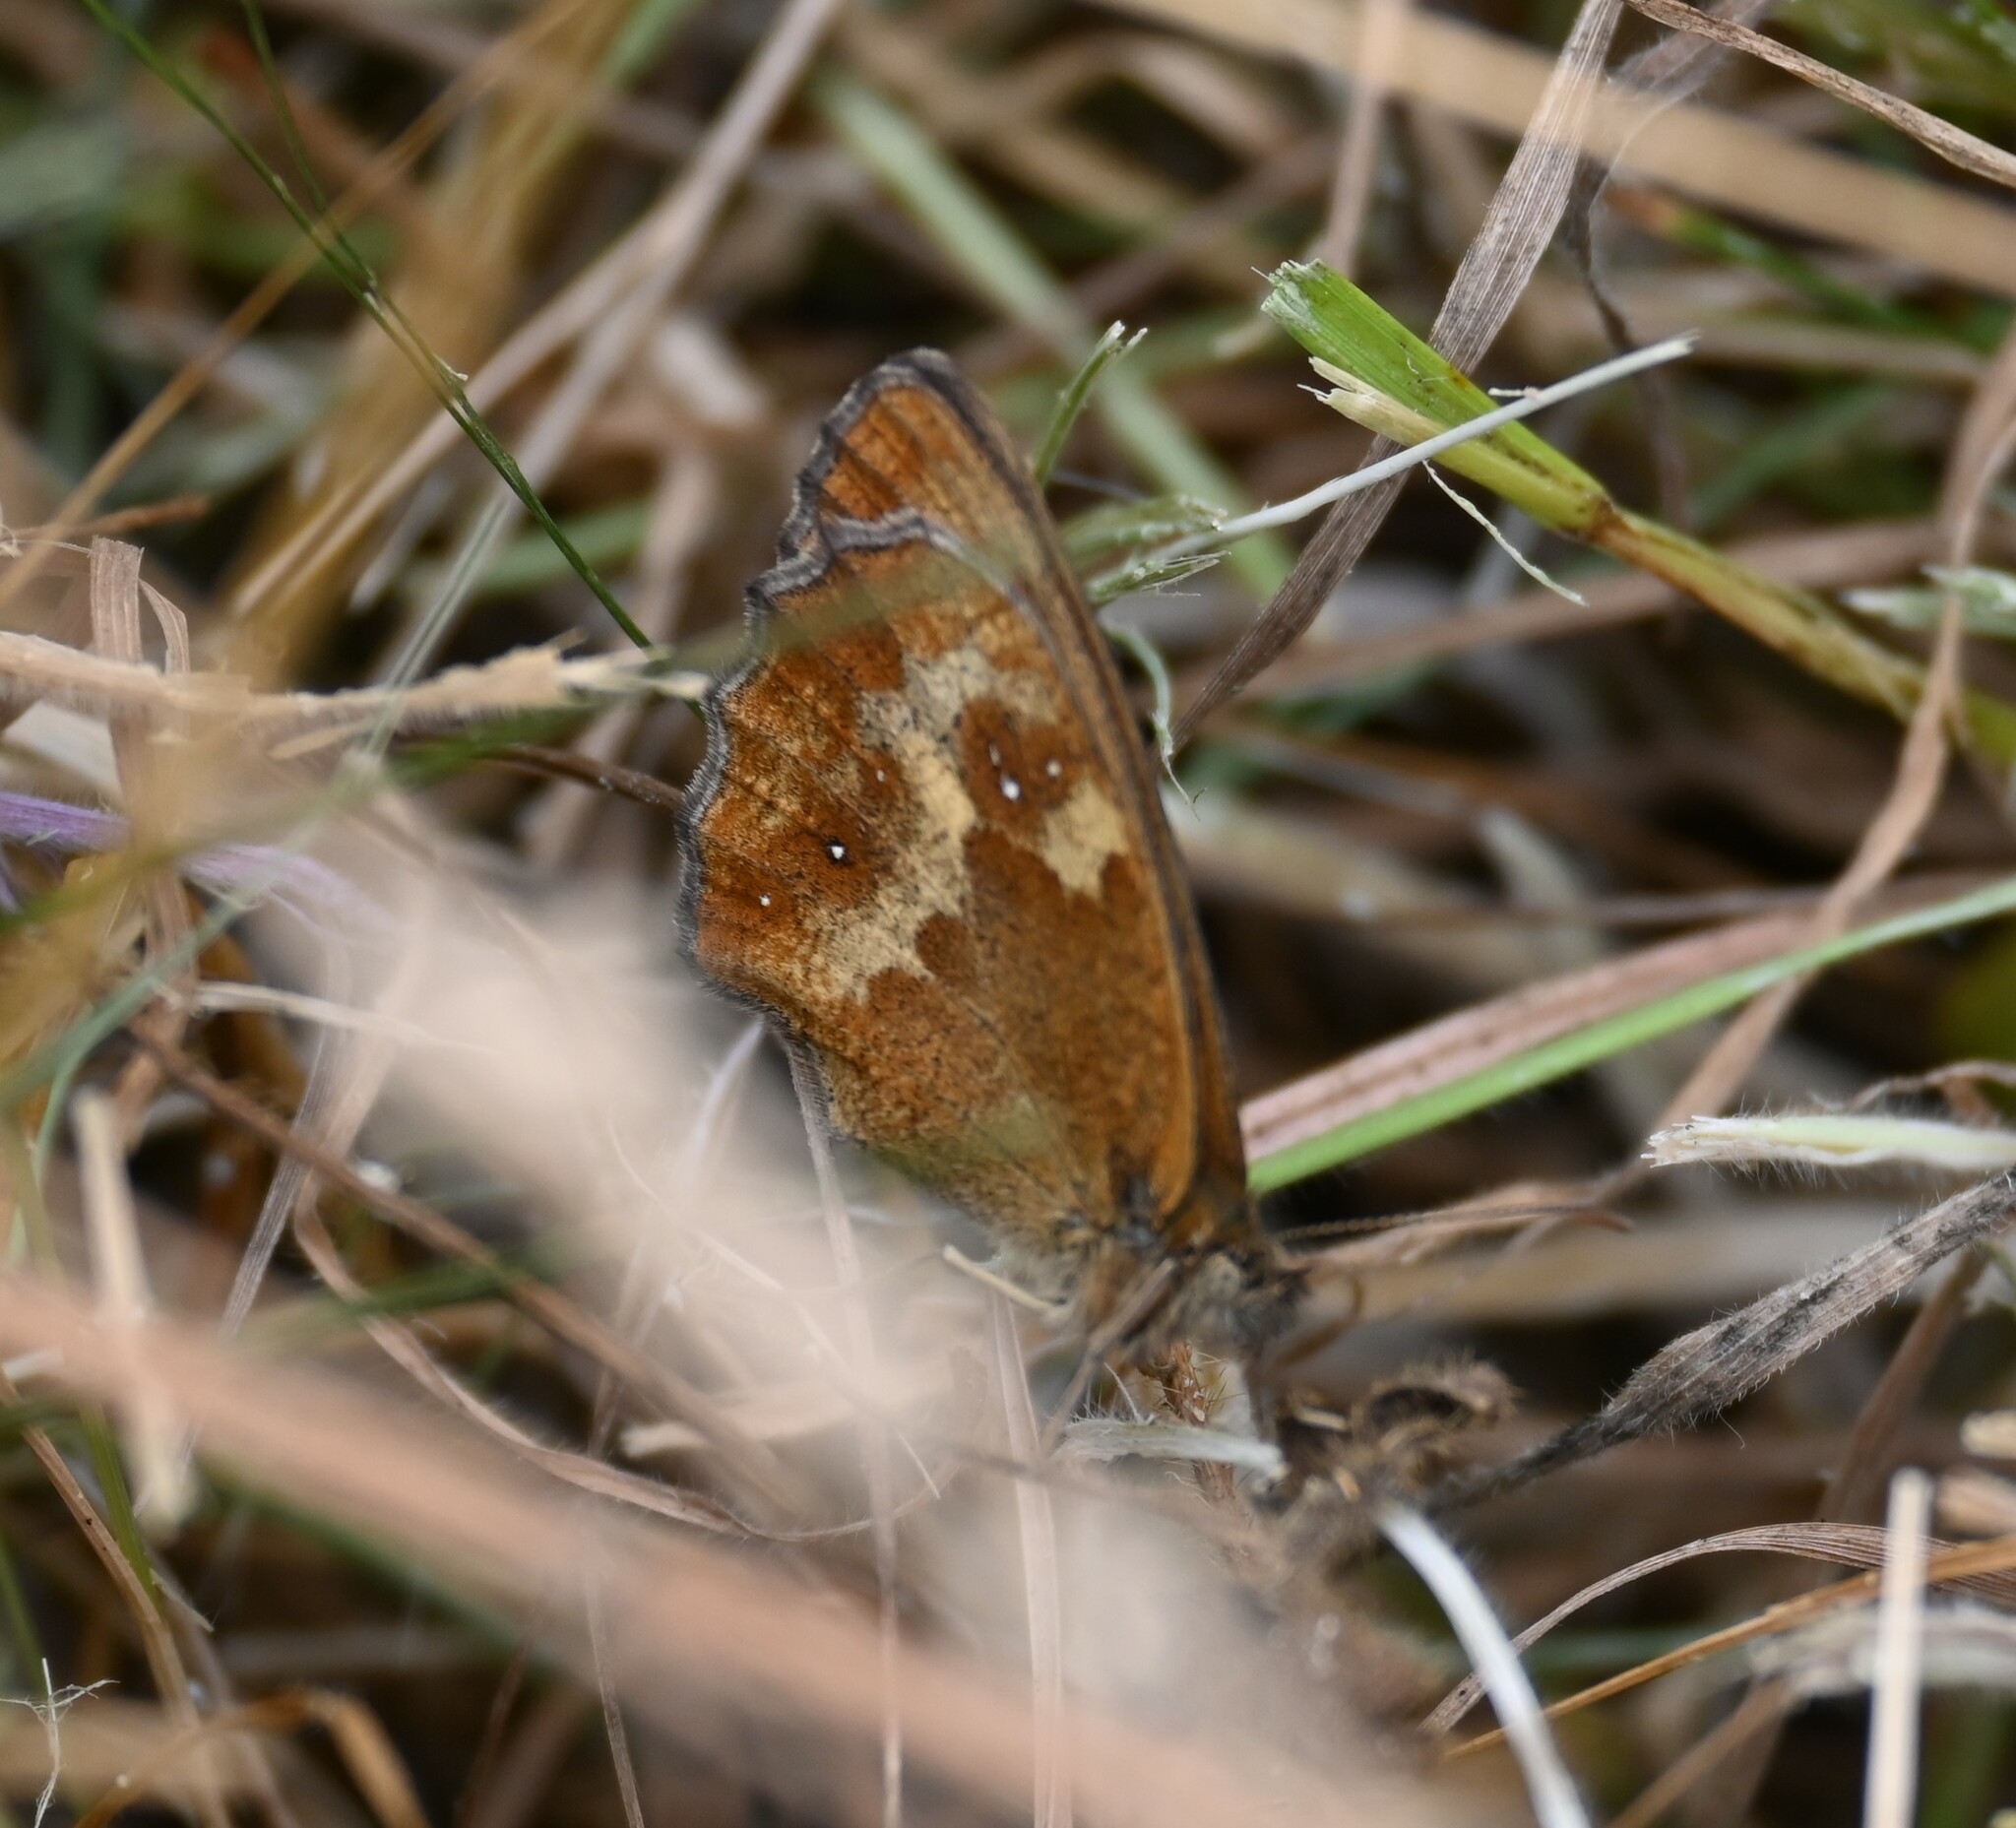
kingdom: Animalia
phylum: Arthropoda
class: Insecta
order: Lepidoptera
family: Nymphalidae
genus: Pyronia
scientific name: Pyronia tithonus
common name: Gatekeeper
